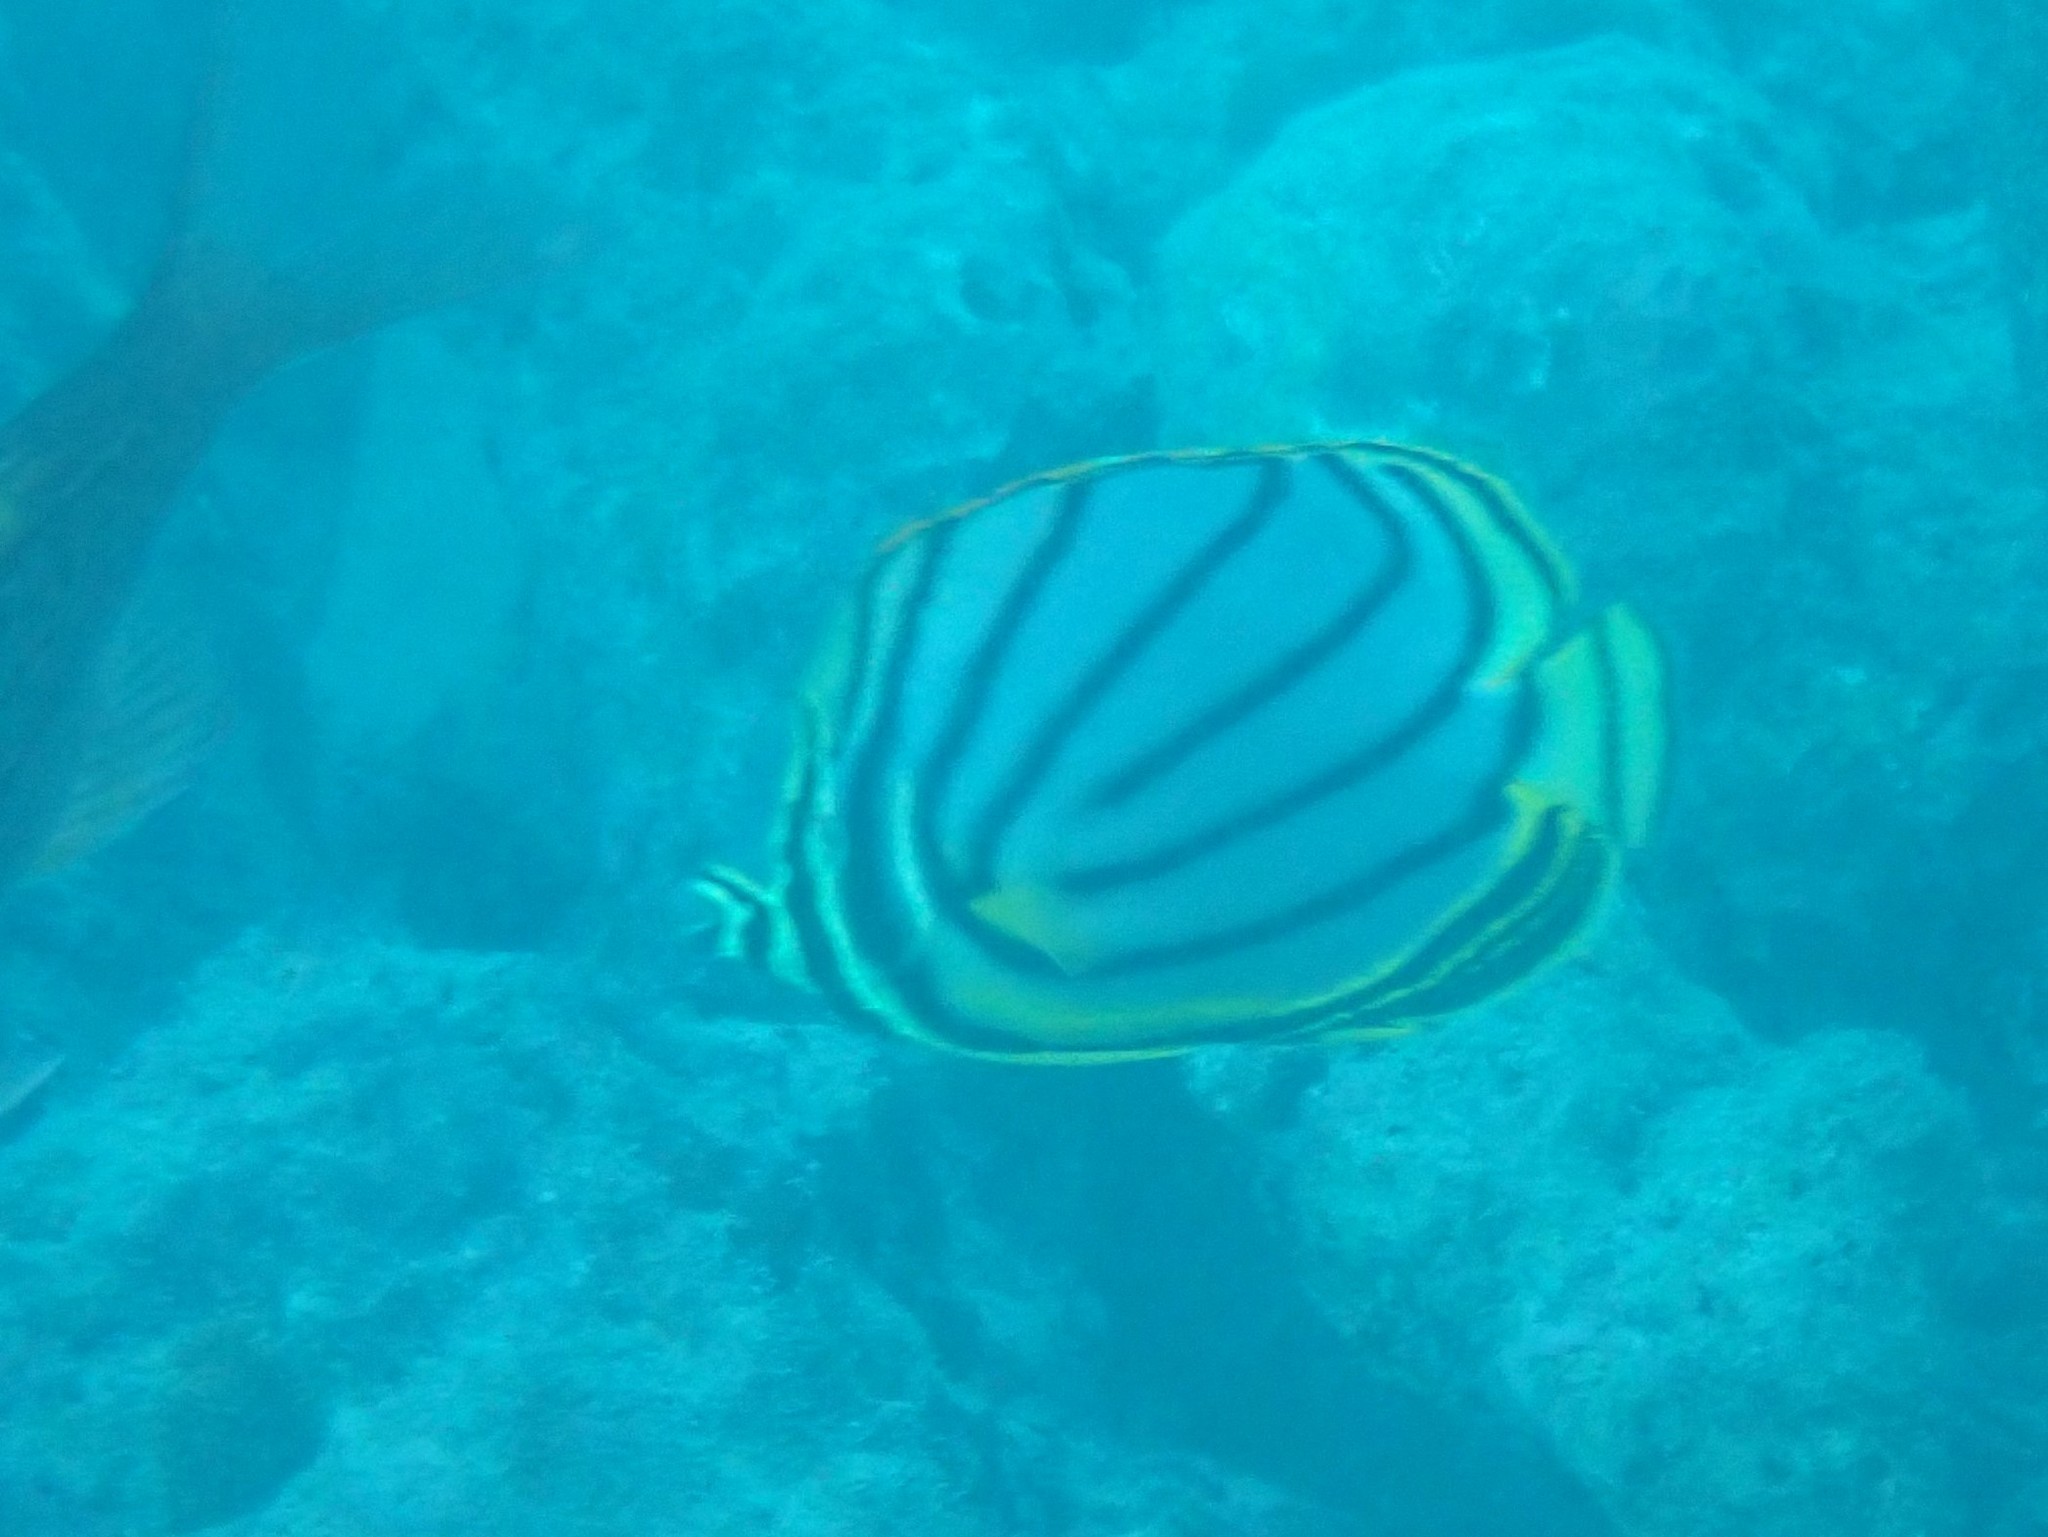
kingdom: Animalia
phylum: Chordata
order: Perciformes
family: Chaetodontidae
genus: Chaetodon
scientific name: Chaetodon meyeri
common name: Meyer's butterflyfish
